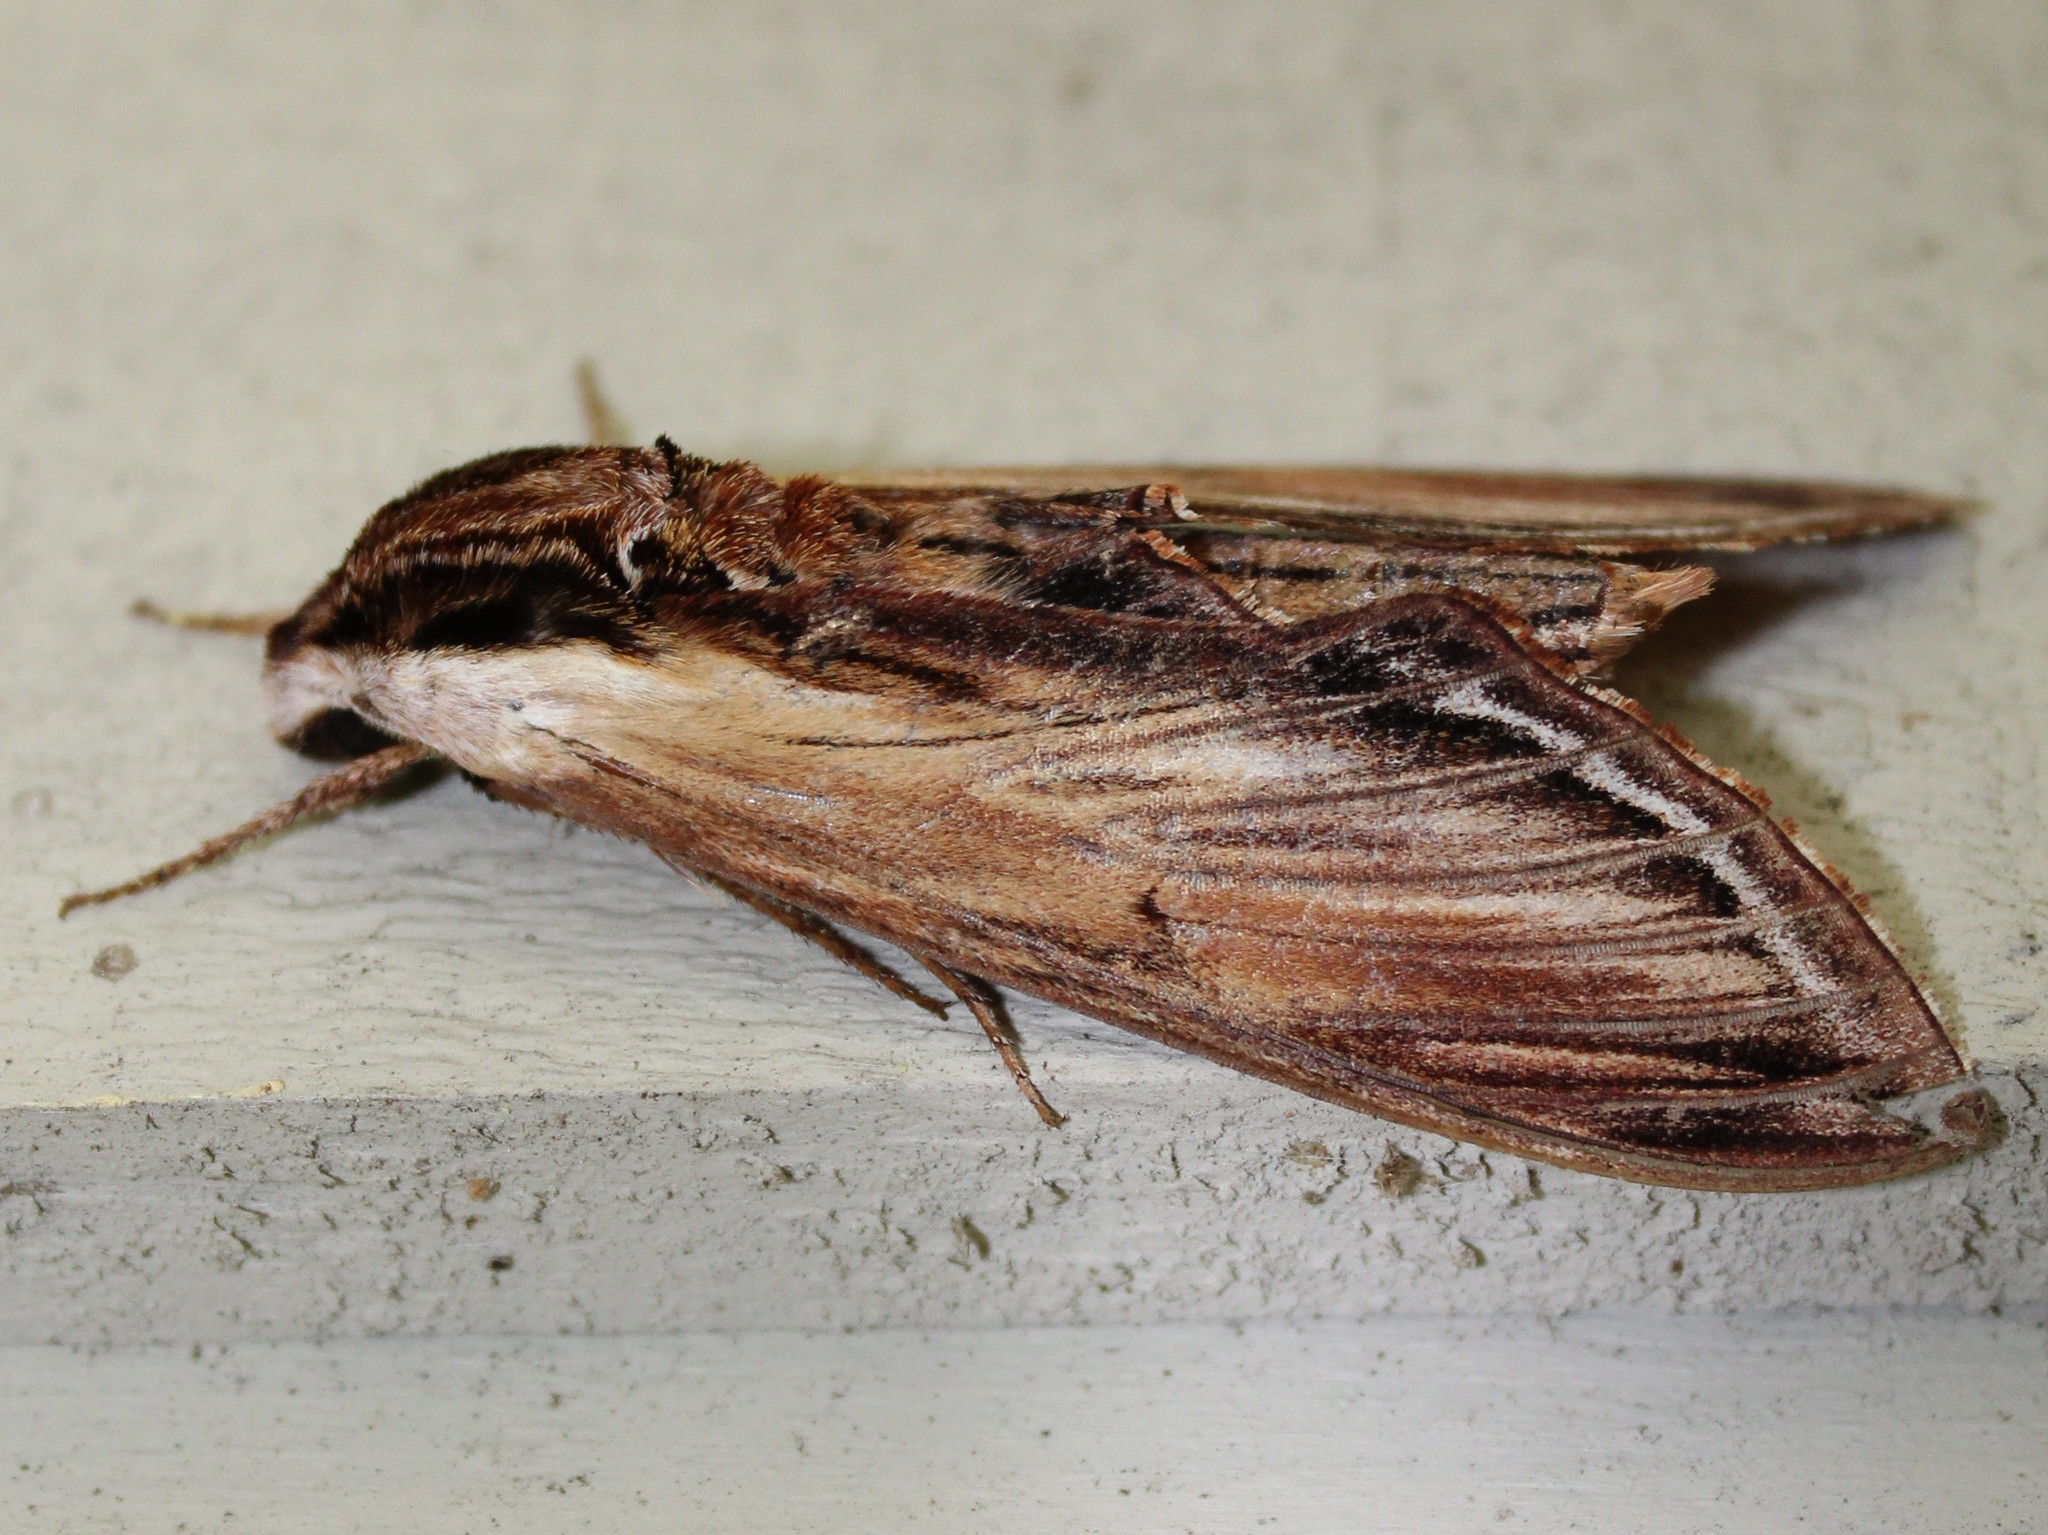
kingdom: Animalia
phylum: Arthropoda
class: Insecta
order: Lepidoptera
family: Sphingidae
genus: Sphinx
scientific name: Sphinx kalmiae
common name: Laurel sphinx
